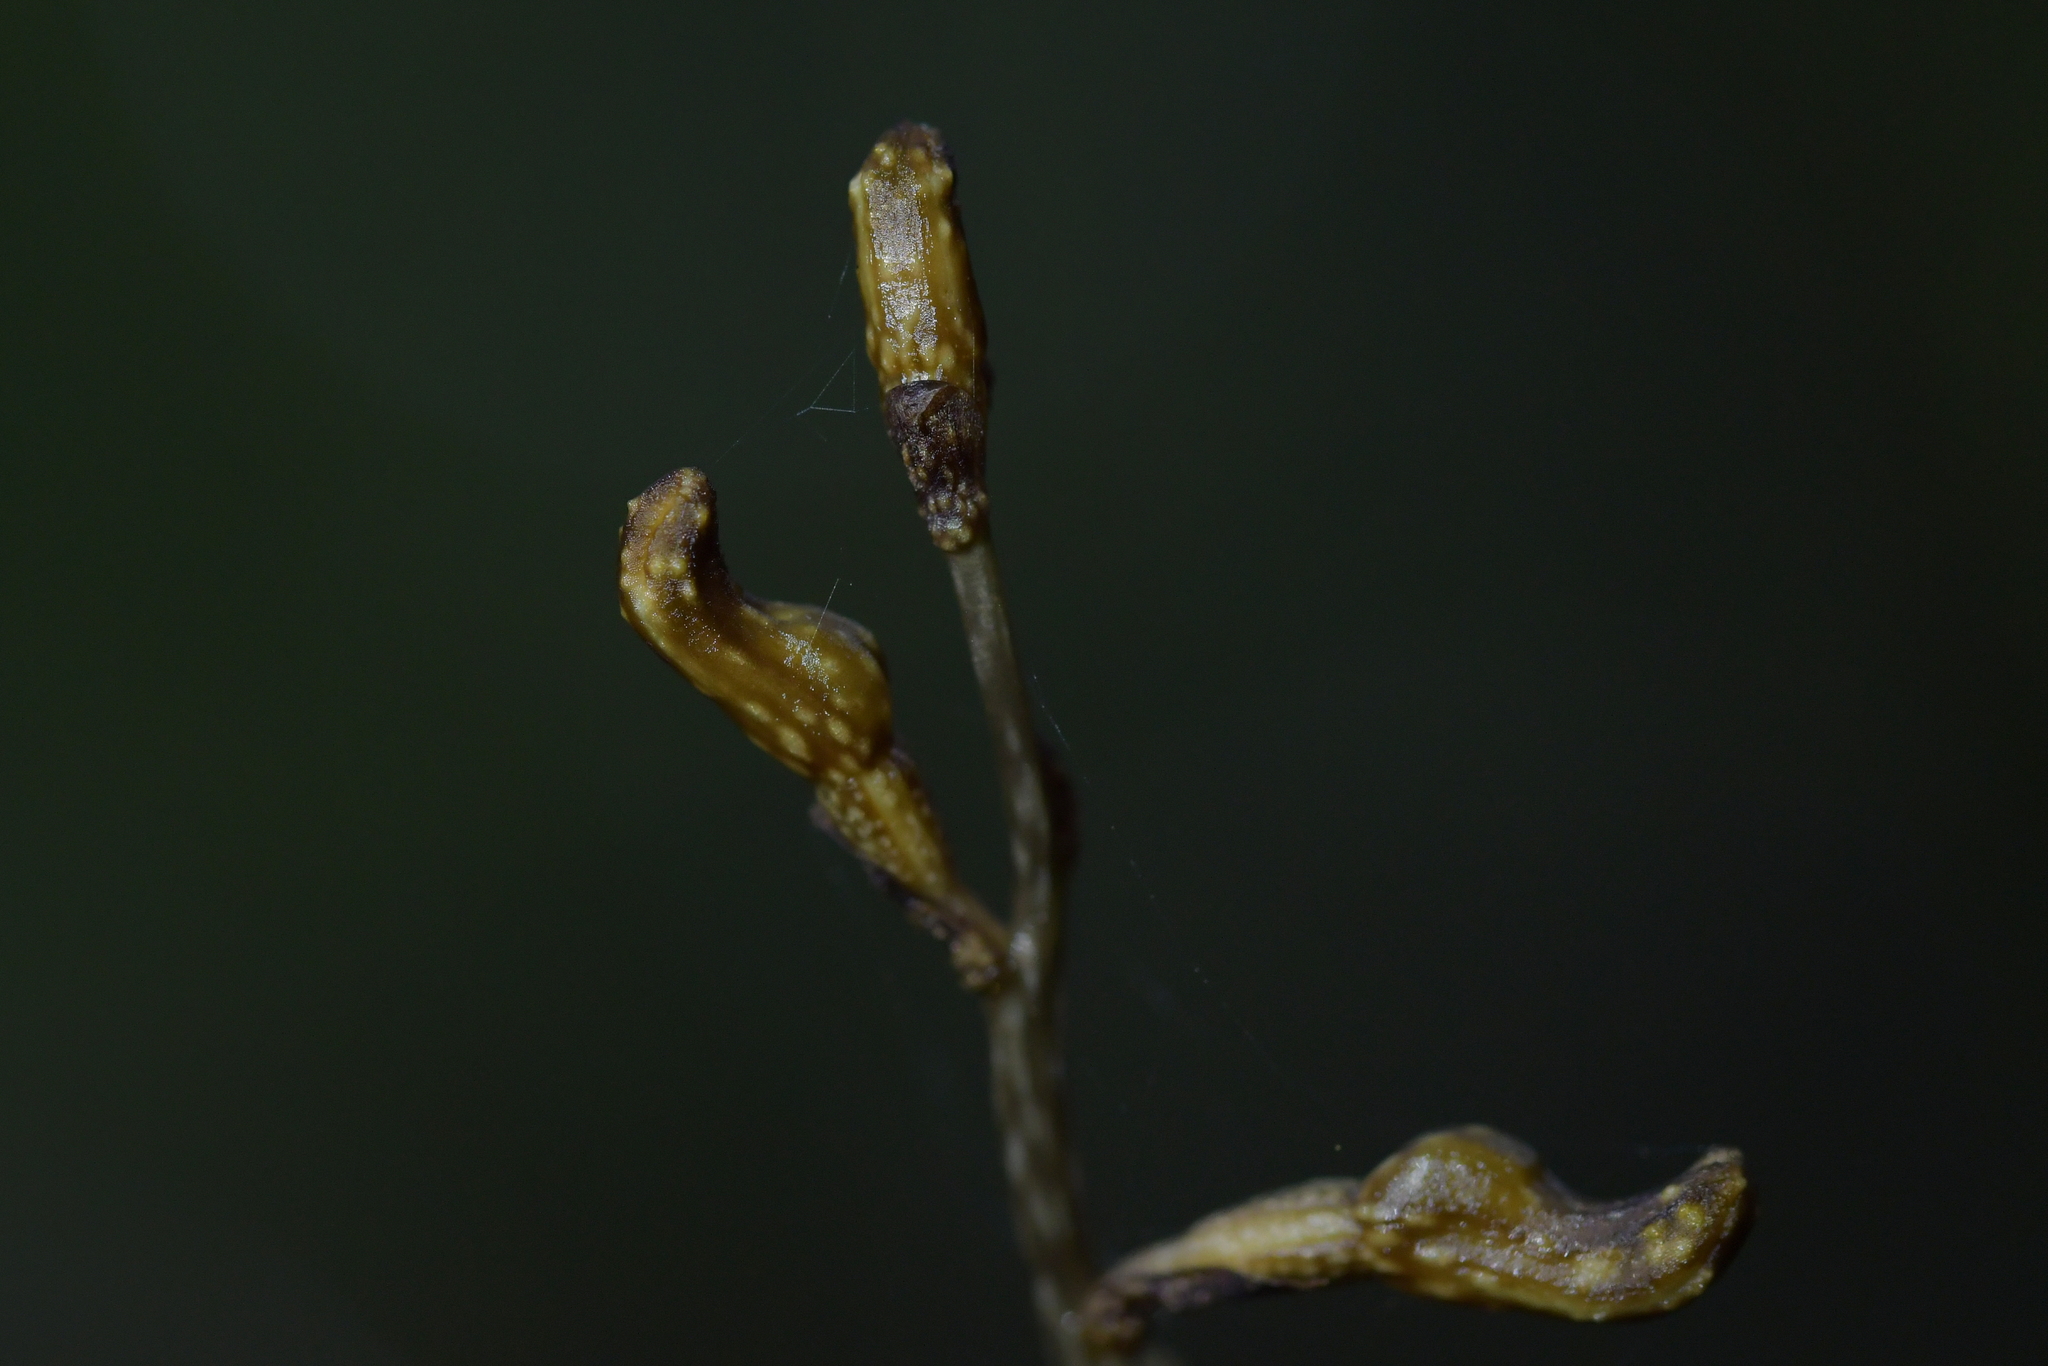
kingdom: Plantae
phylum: Tracheophyta
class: Liliopsida
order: Asparagales
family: Orchidaceae
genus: Gastrodia
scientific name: Gastrodia cunninghamii
